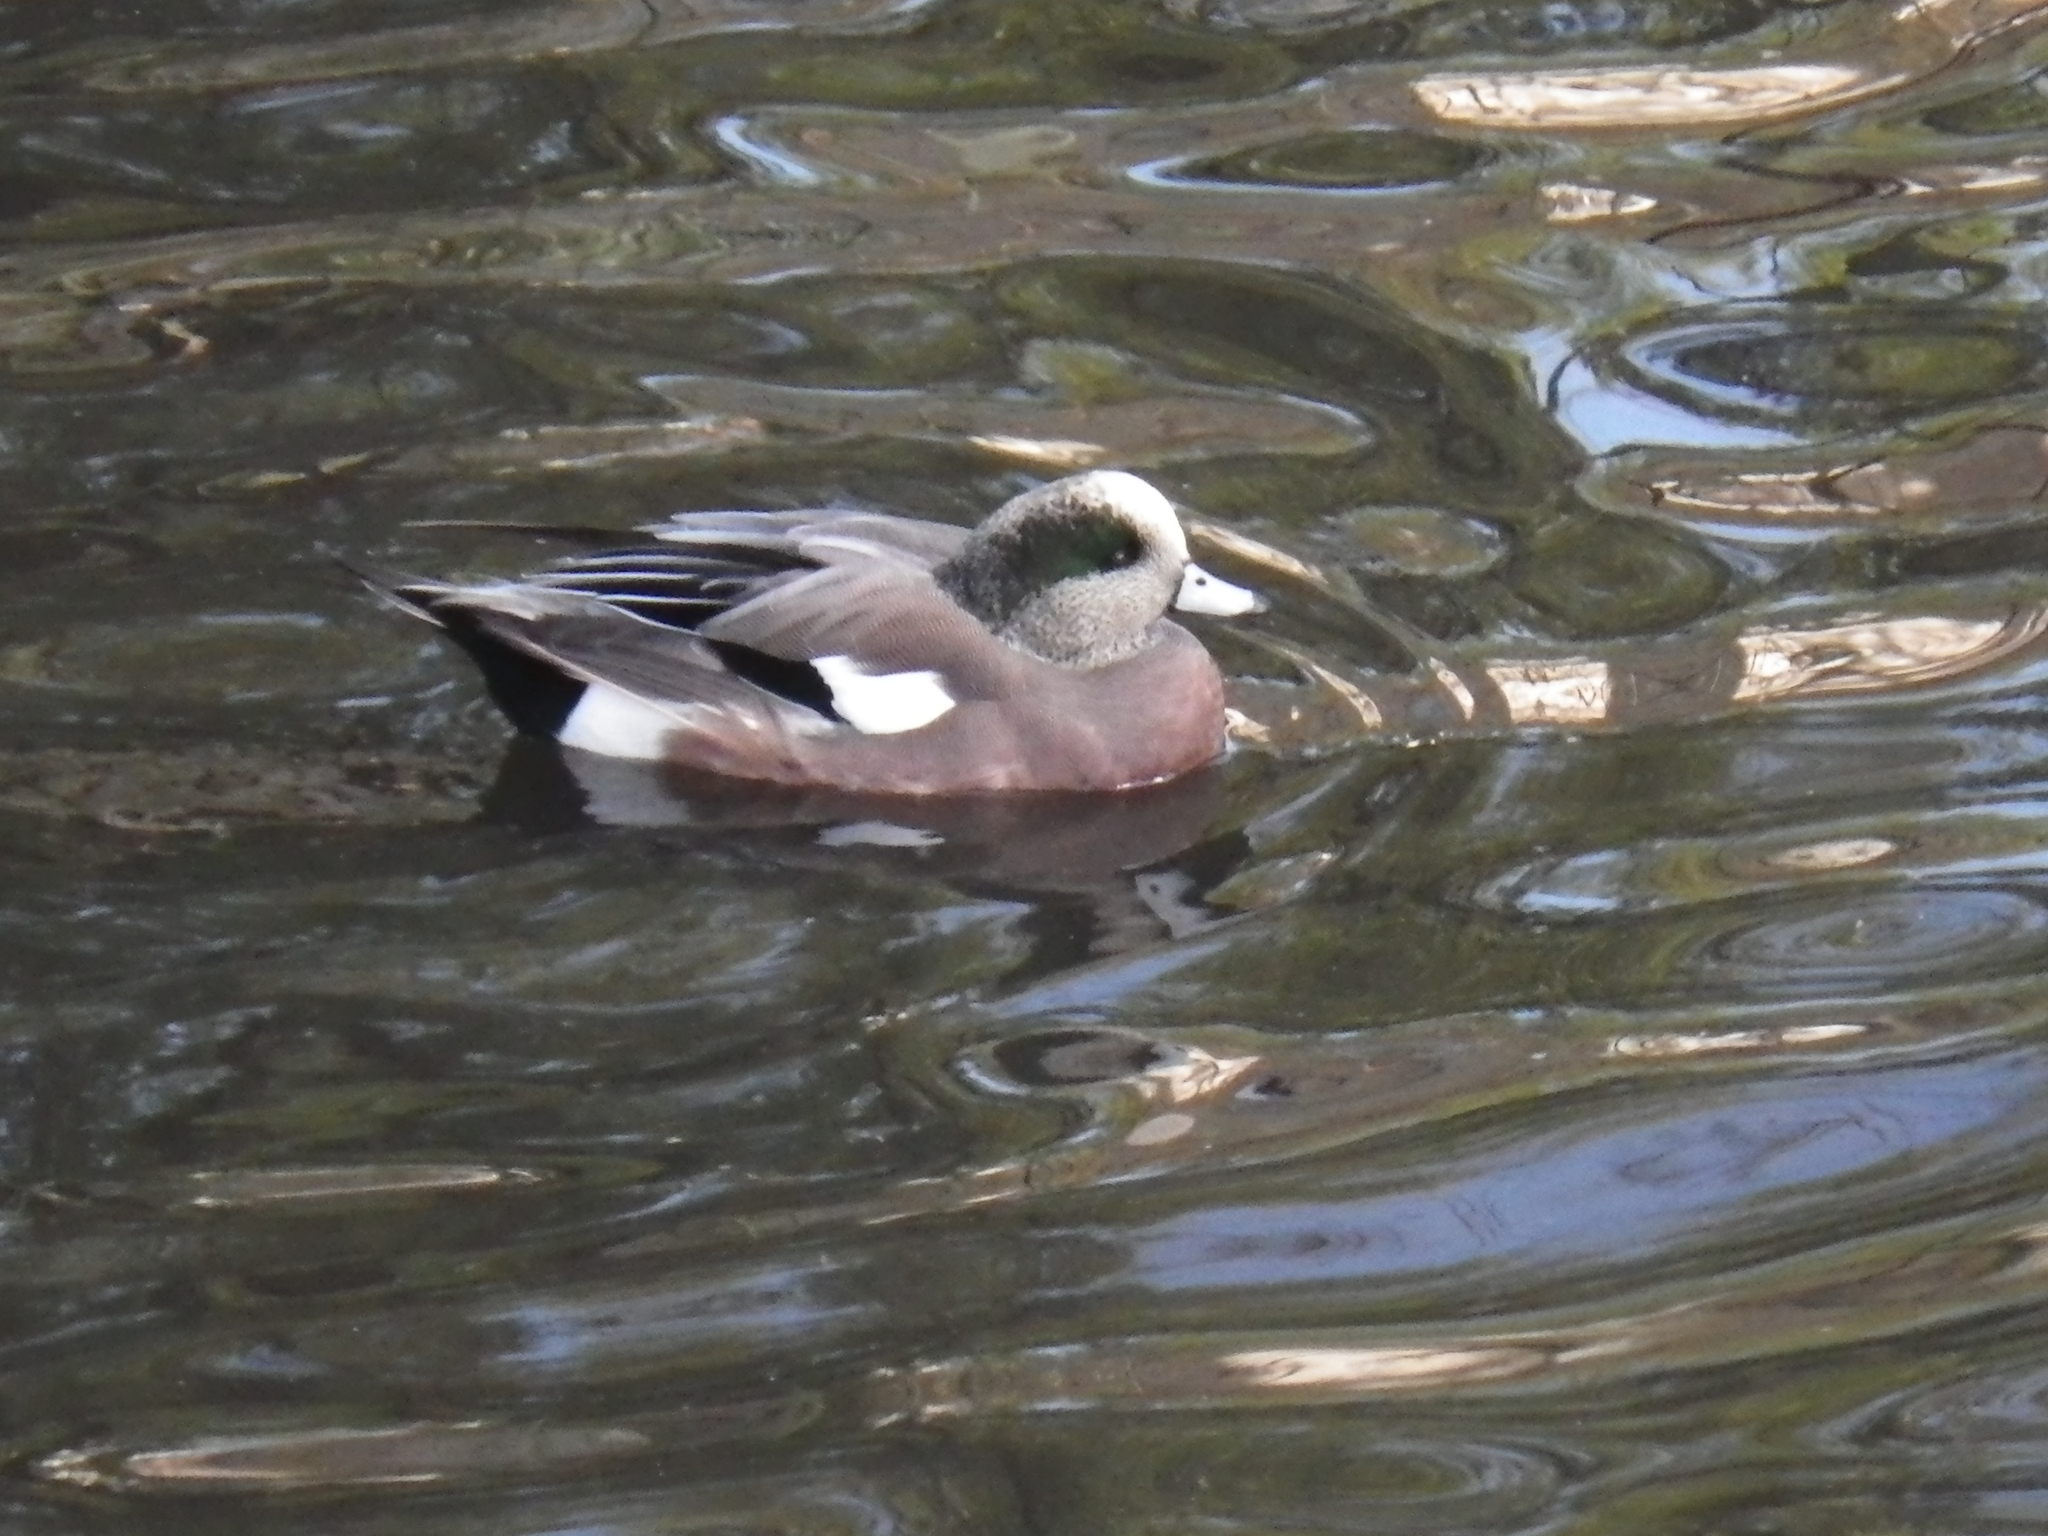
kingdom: Animalia
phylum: Chordata
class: Aves
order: Anseriformes
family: Anatidae
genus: Mareca
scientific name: Mareca americana
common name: American wigeon
